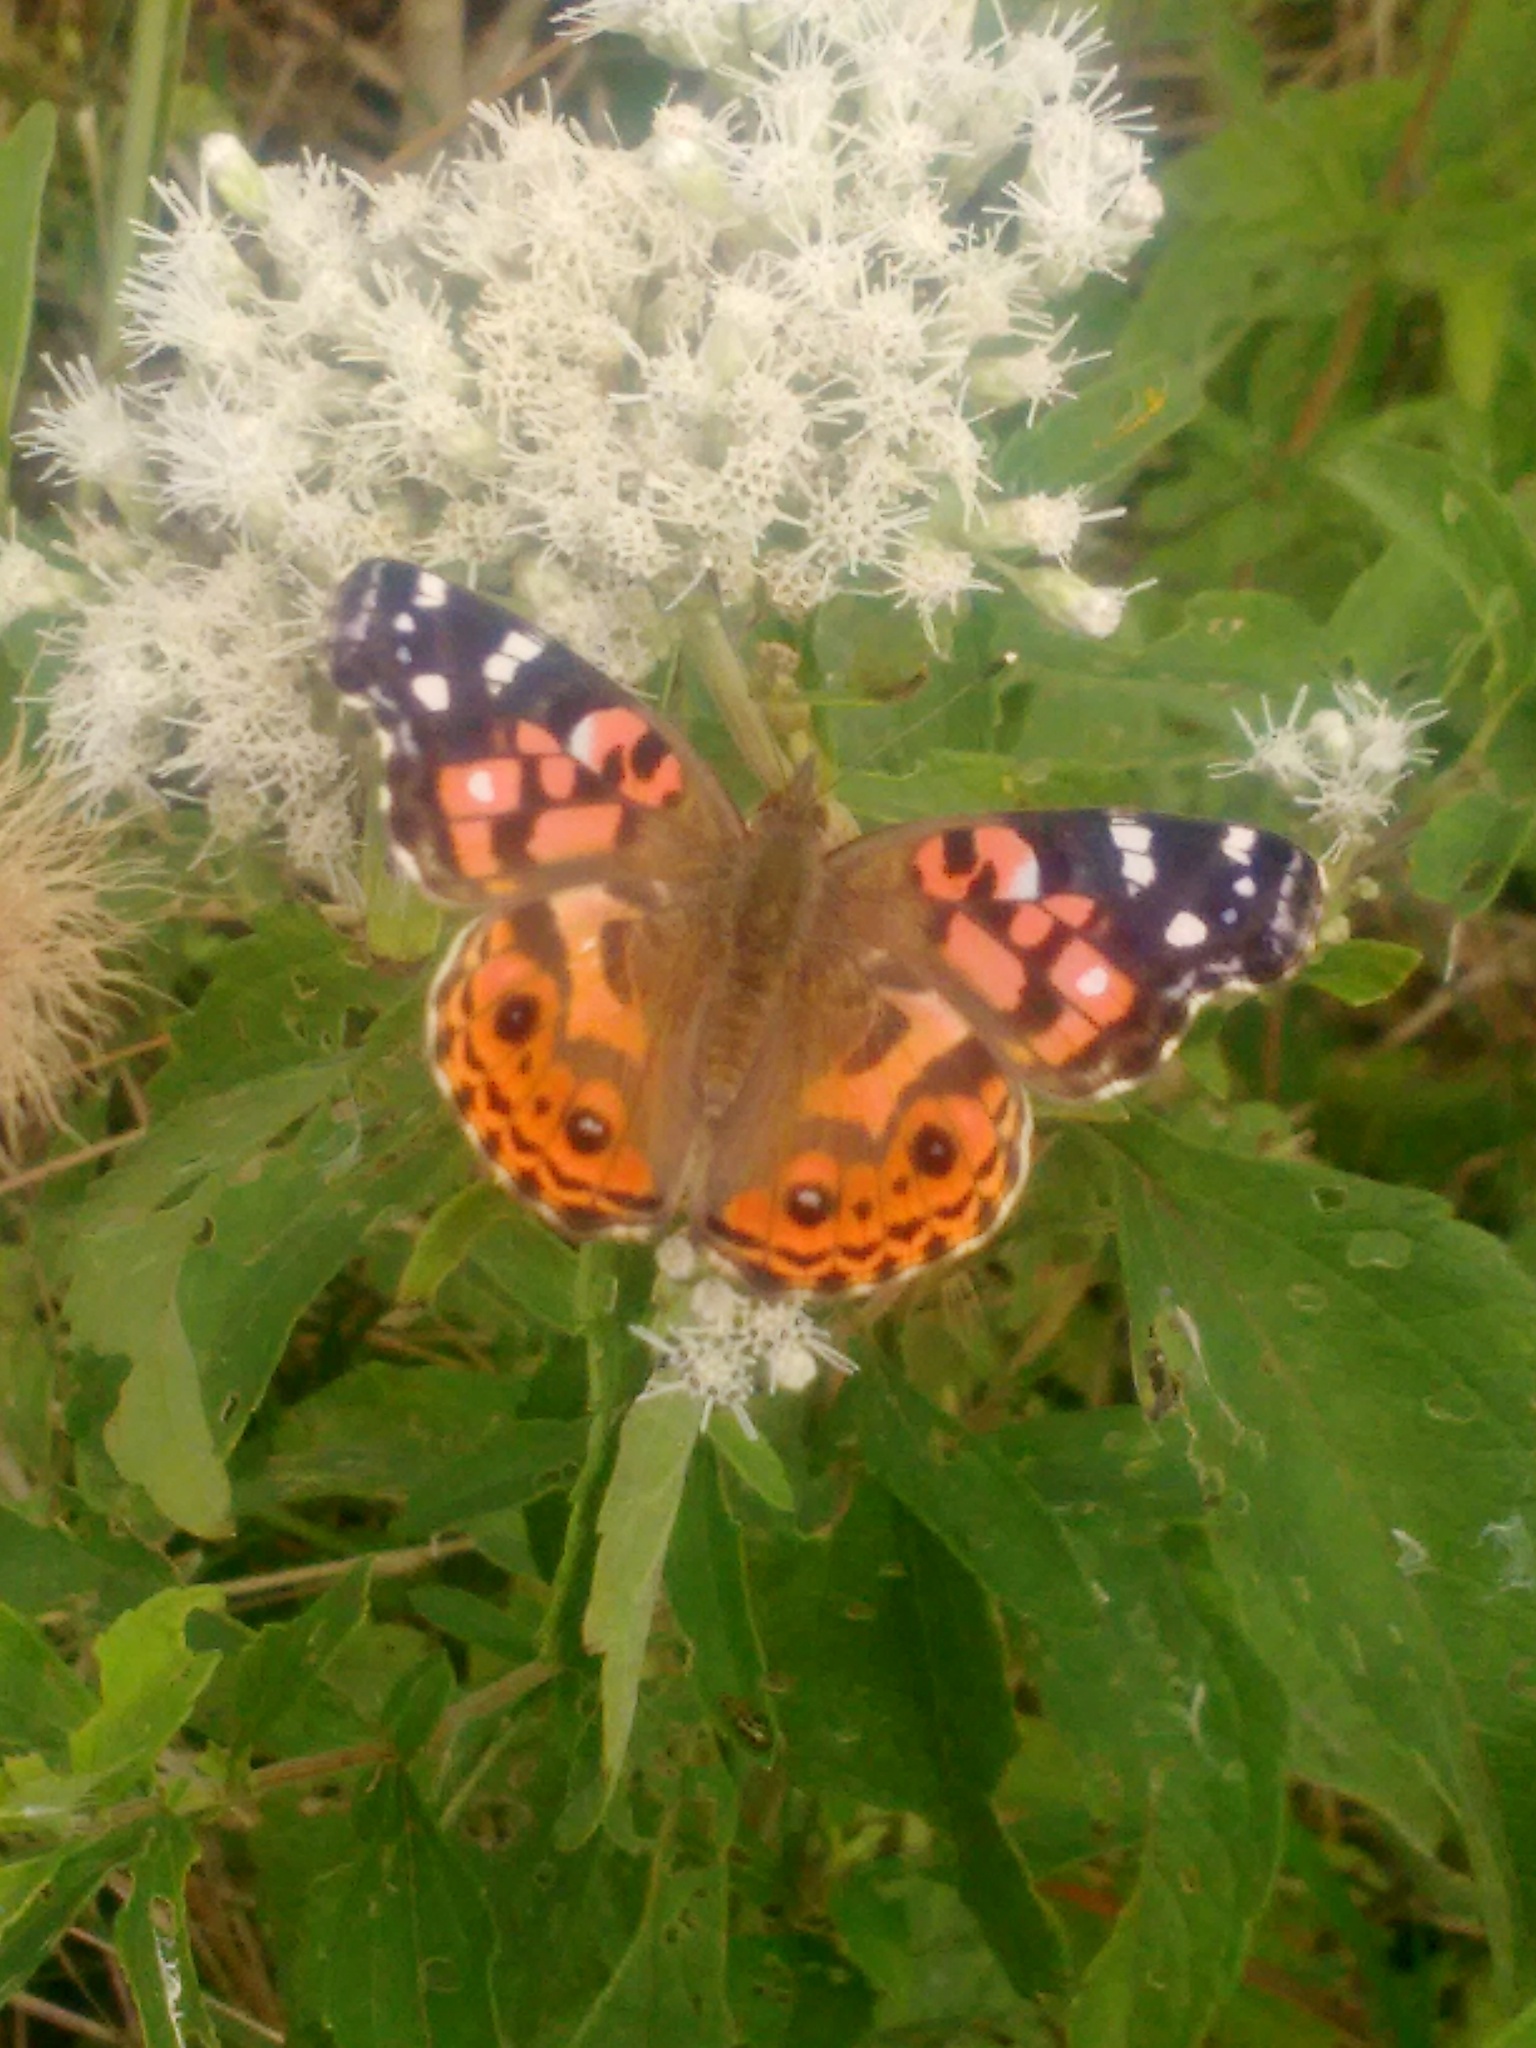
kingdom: Animalia
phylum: Arthropoda
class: Insecta
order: Lepidoptera
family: Nymphalidae
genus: Vanessa
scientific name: Vanessa braziliensis
